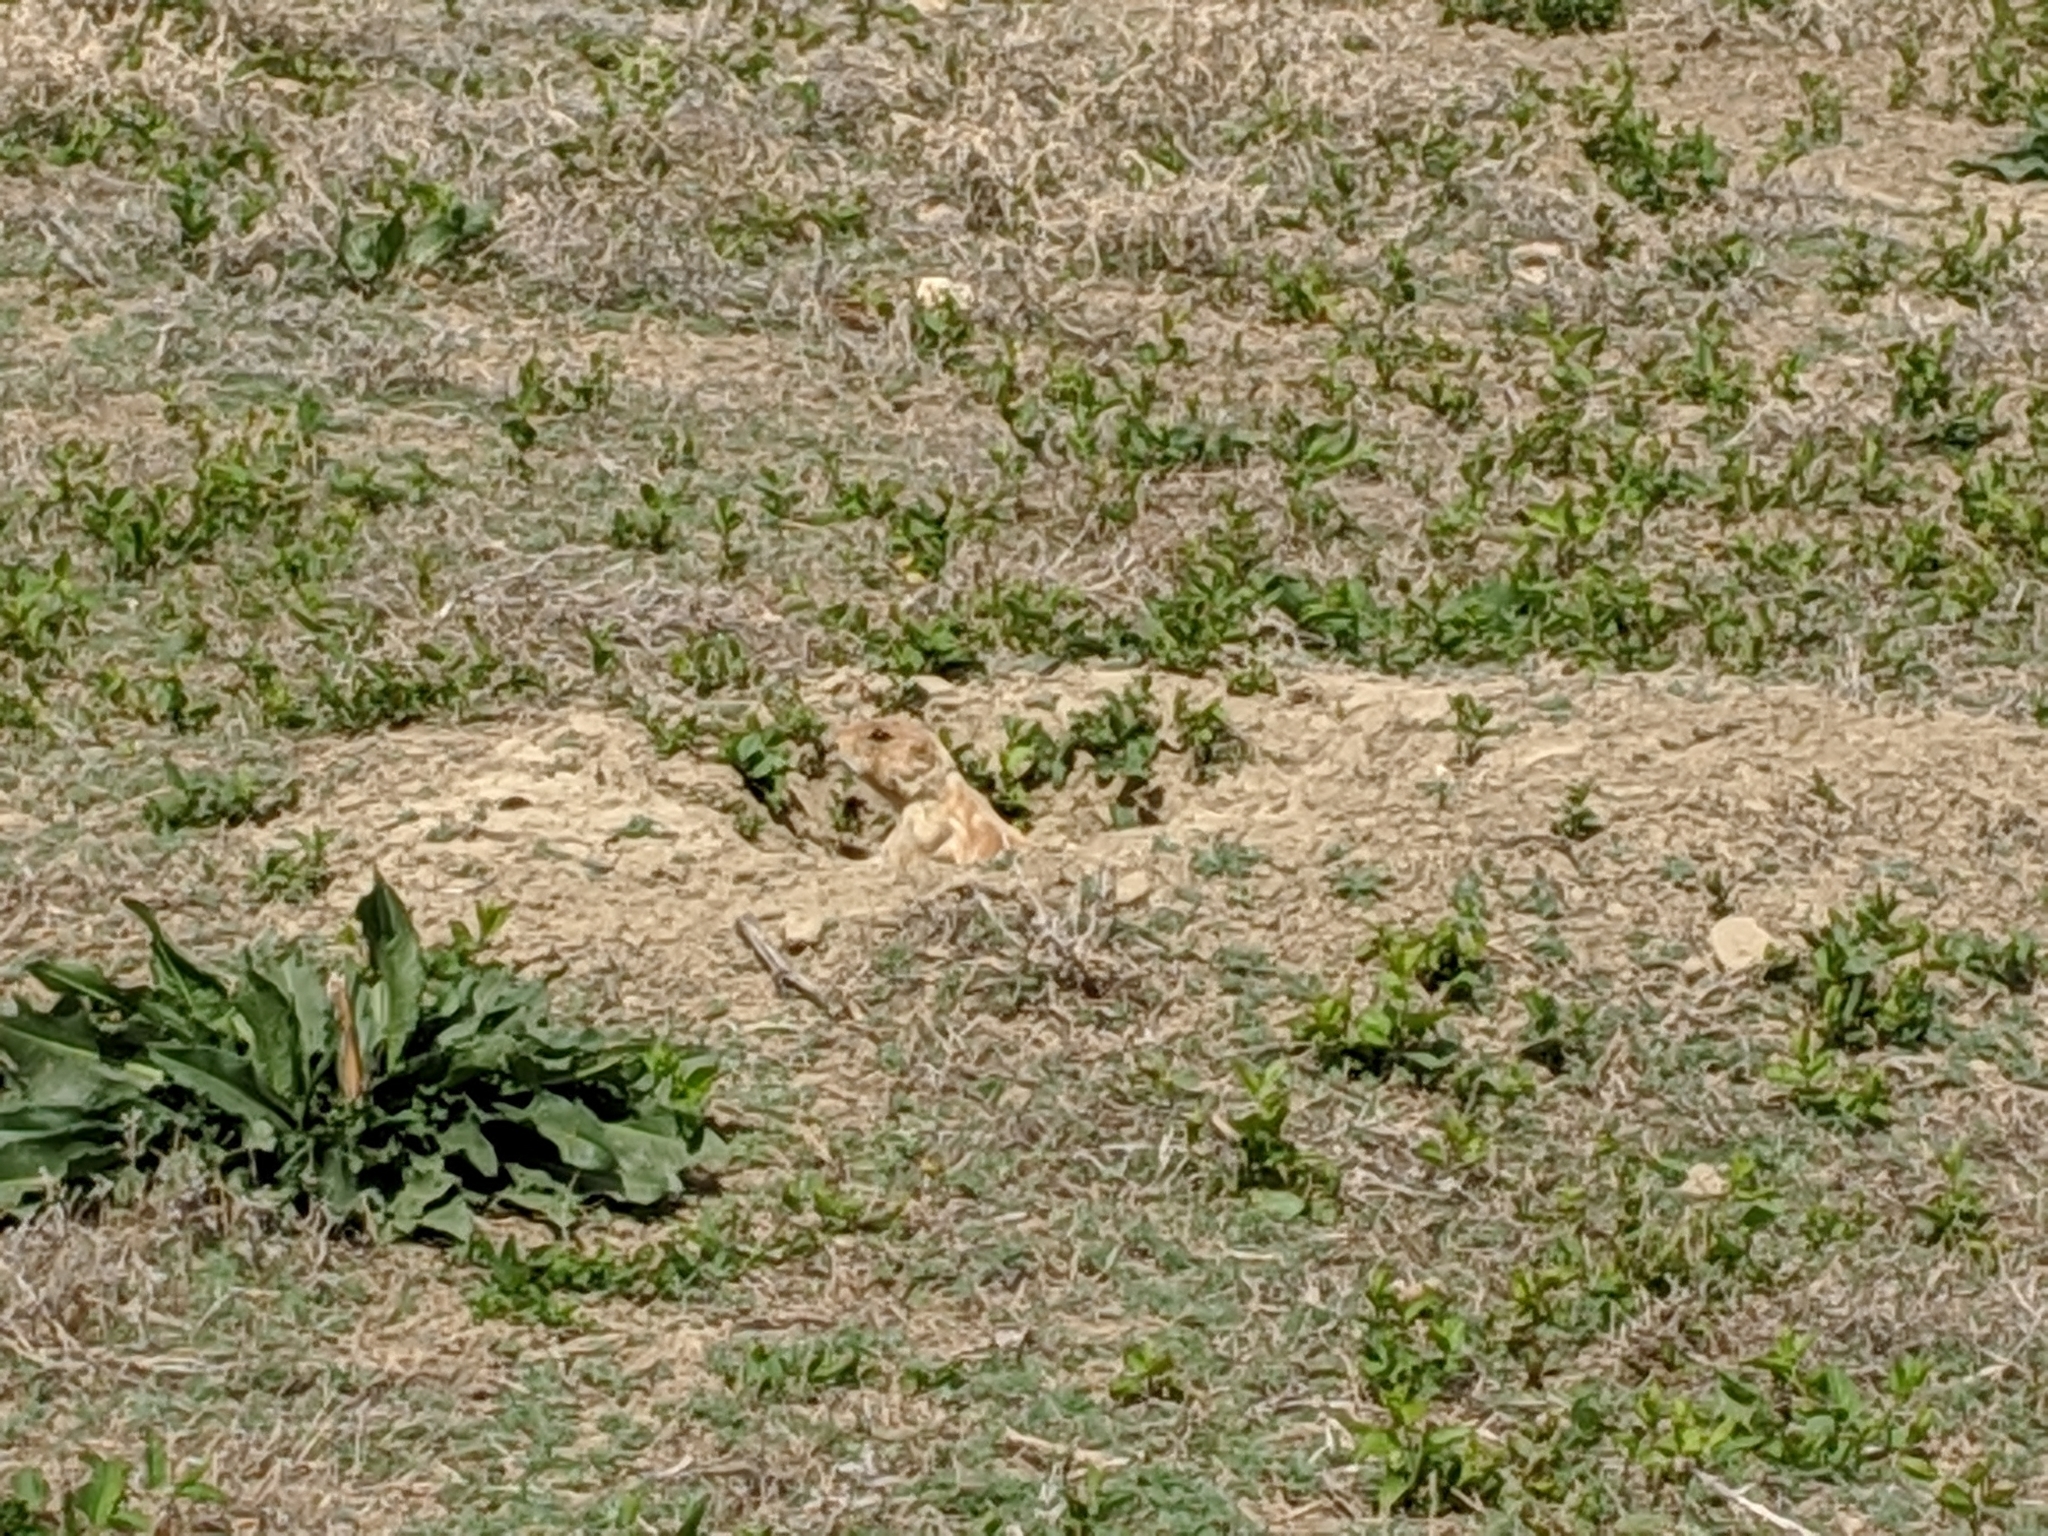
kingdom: Animalia
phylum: Chordata
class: Mammalia
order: Rodentia
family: Sciuridae
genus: Cynomys
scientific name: Cynomys ludovicianus
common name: Black-tailed prairie dog
